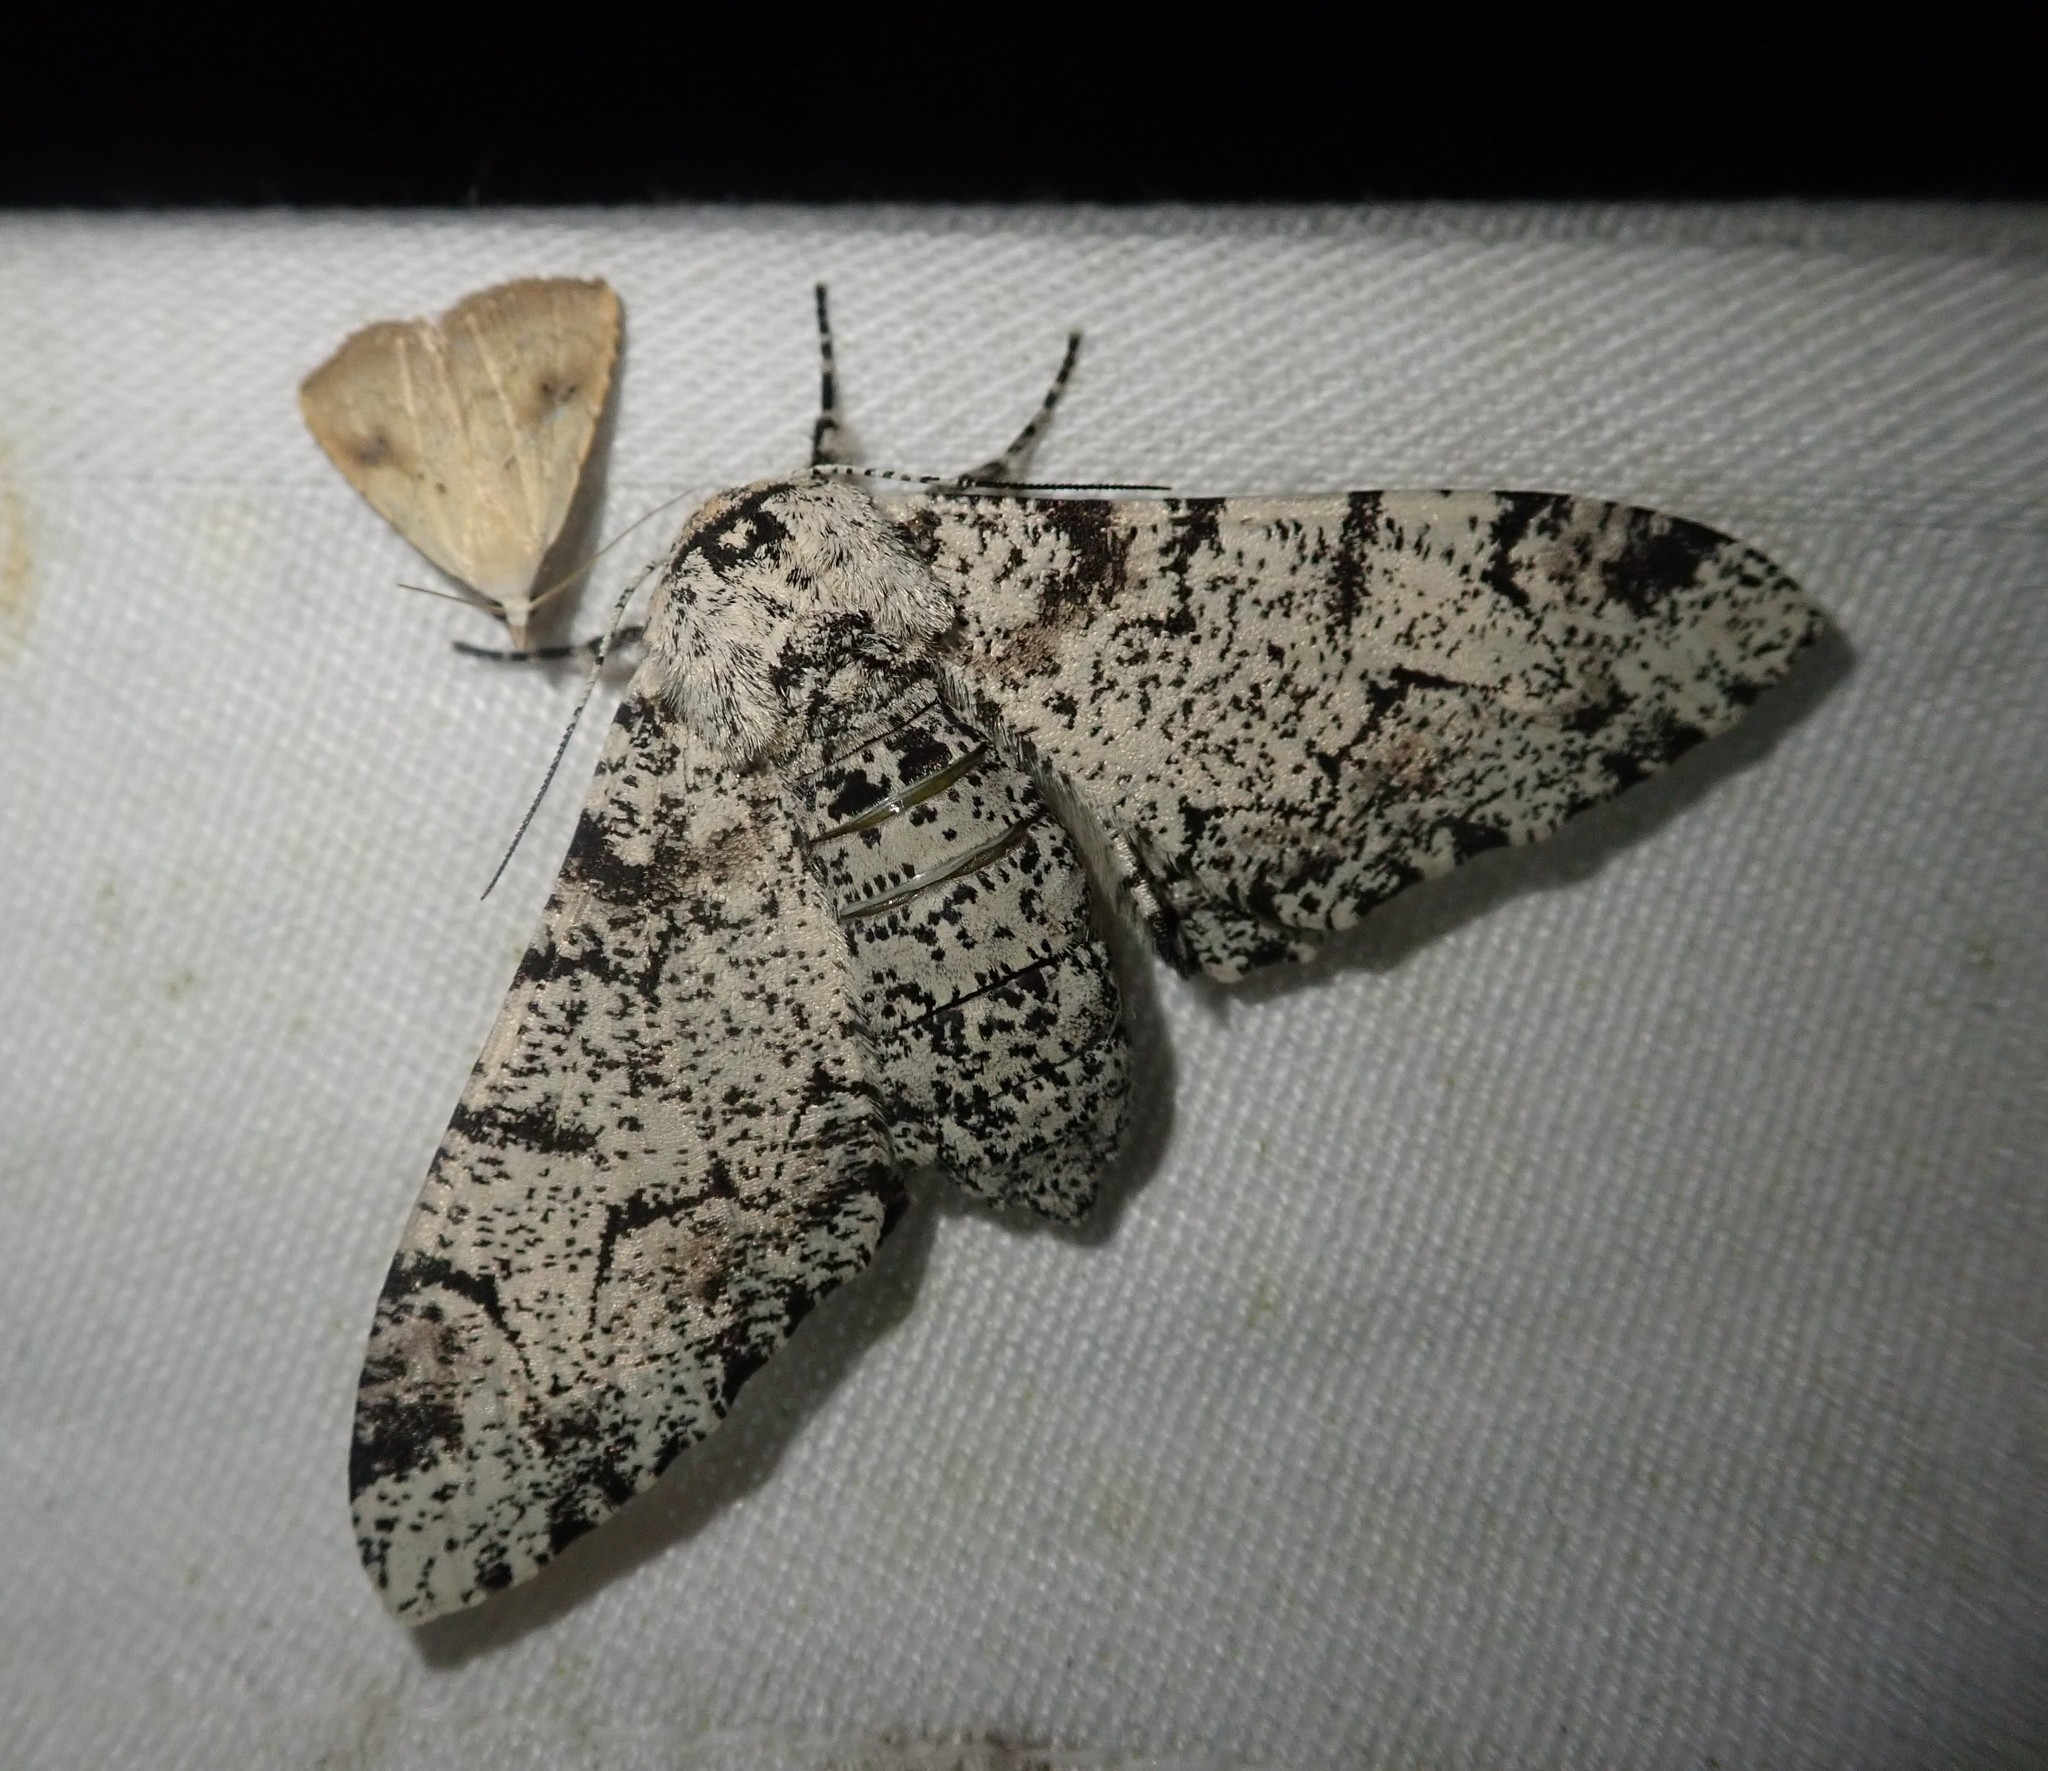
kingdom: Animalia
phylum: Arthropoda
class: Insecta
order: Lepidoptera
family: Geometridae
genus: Biston
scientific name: Biston betularia
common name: Peppered moth
